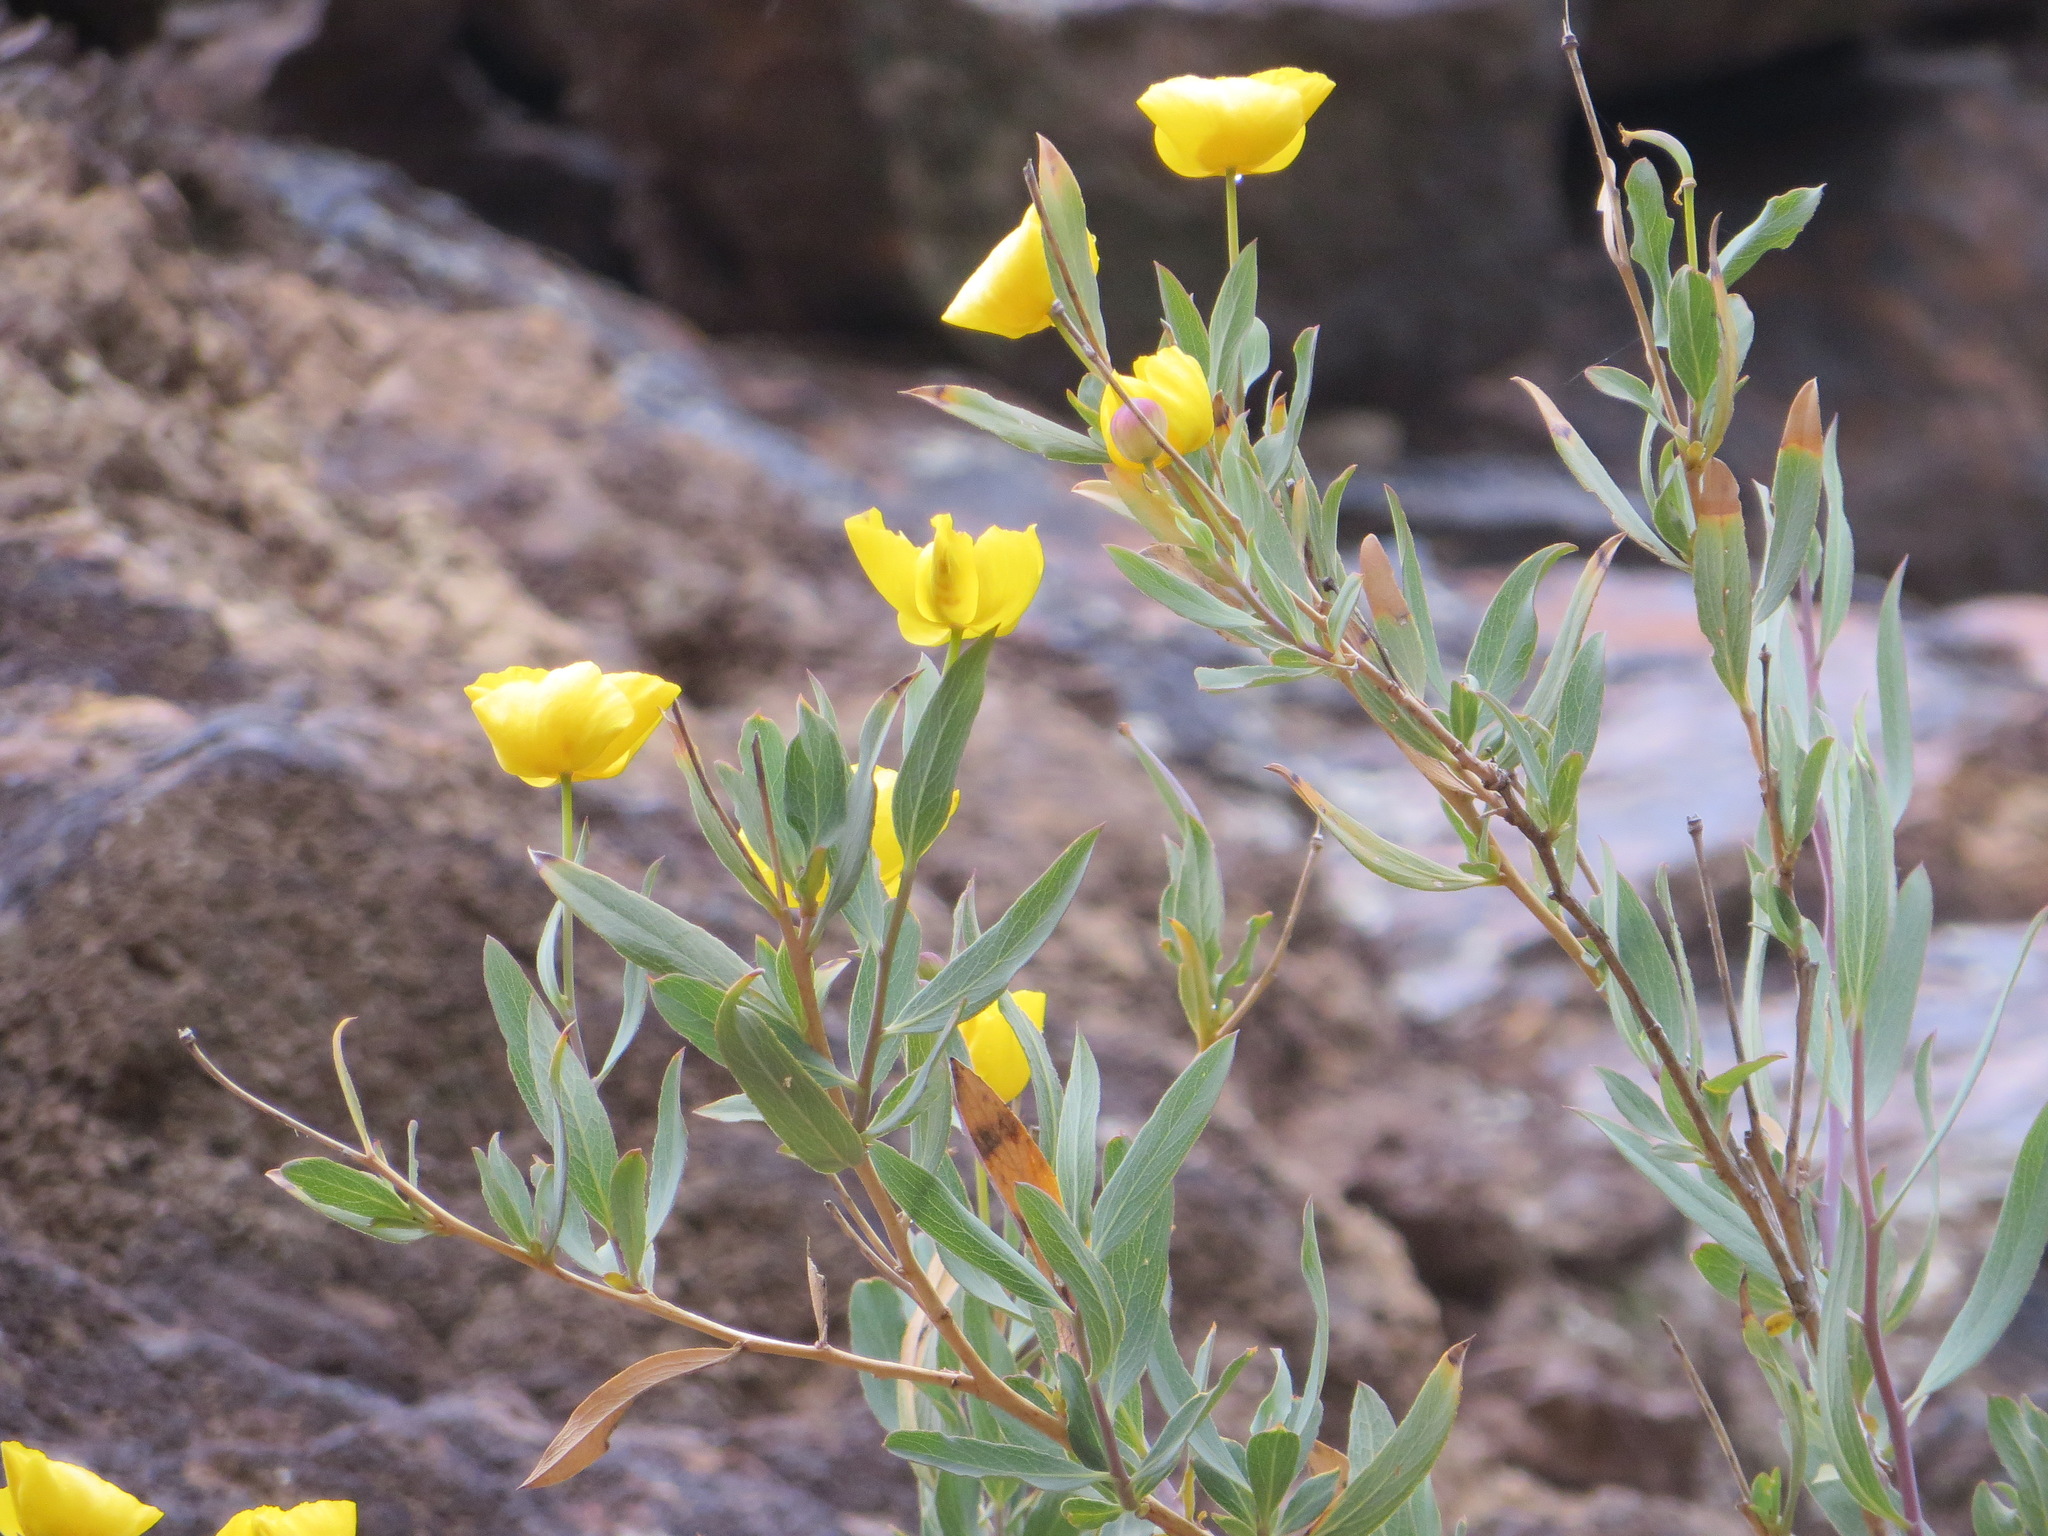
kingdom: Plantae
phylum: Tracheophyta
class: Magnoliopsida
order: Ranunculales
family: Papaveraceae
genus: Dendromecon
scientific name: Dendromecon rigida
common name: Tree poppy
